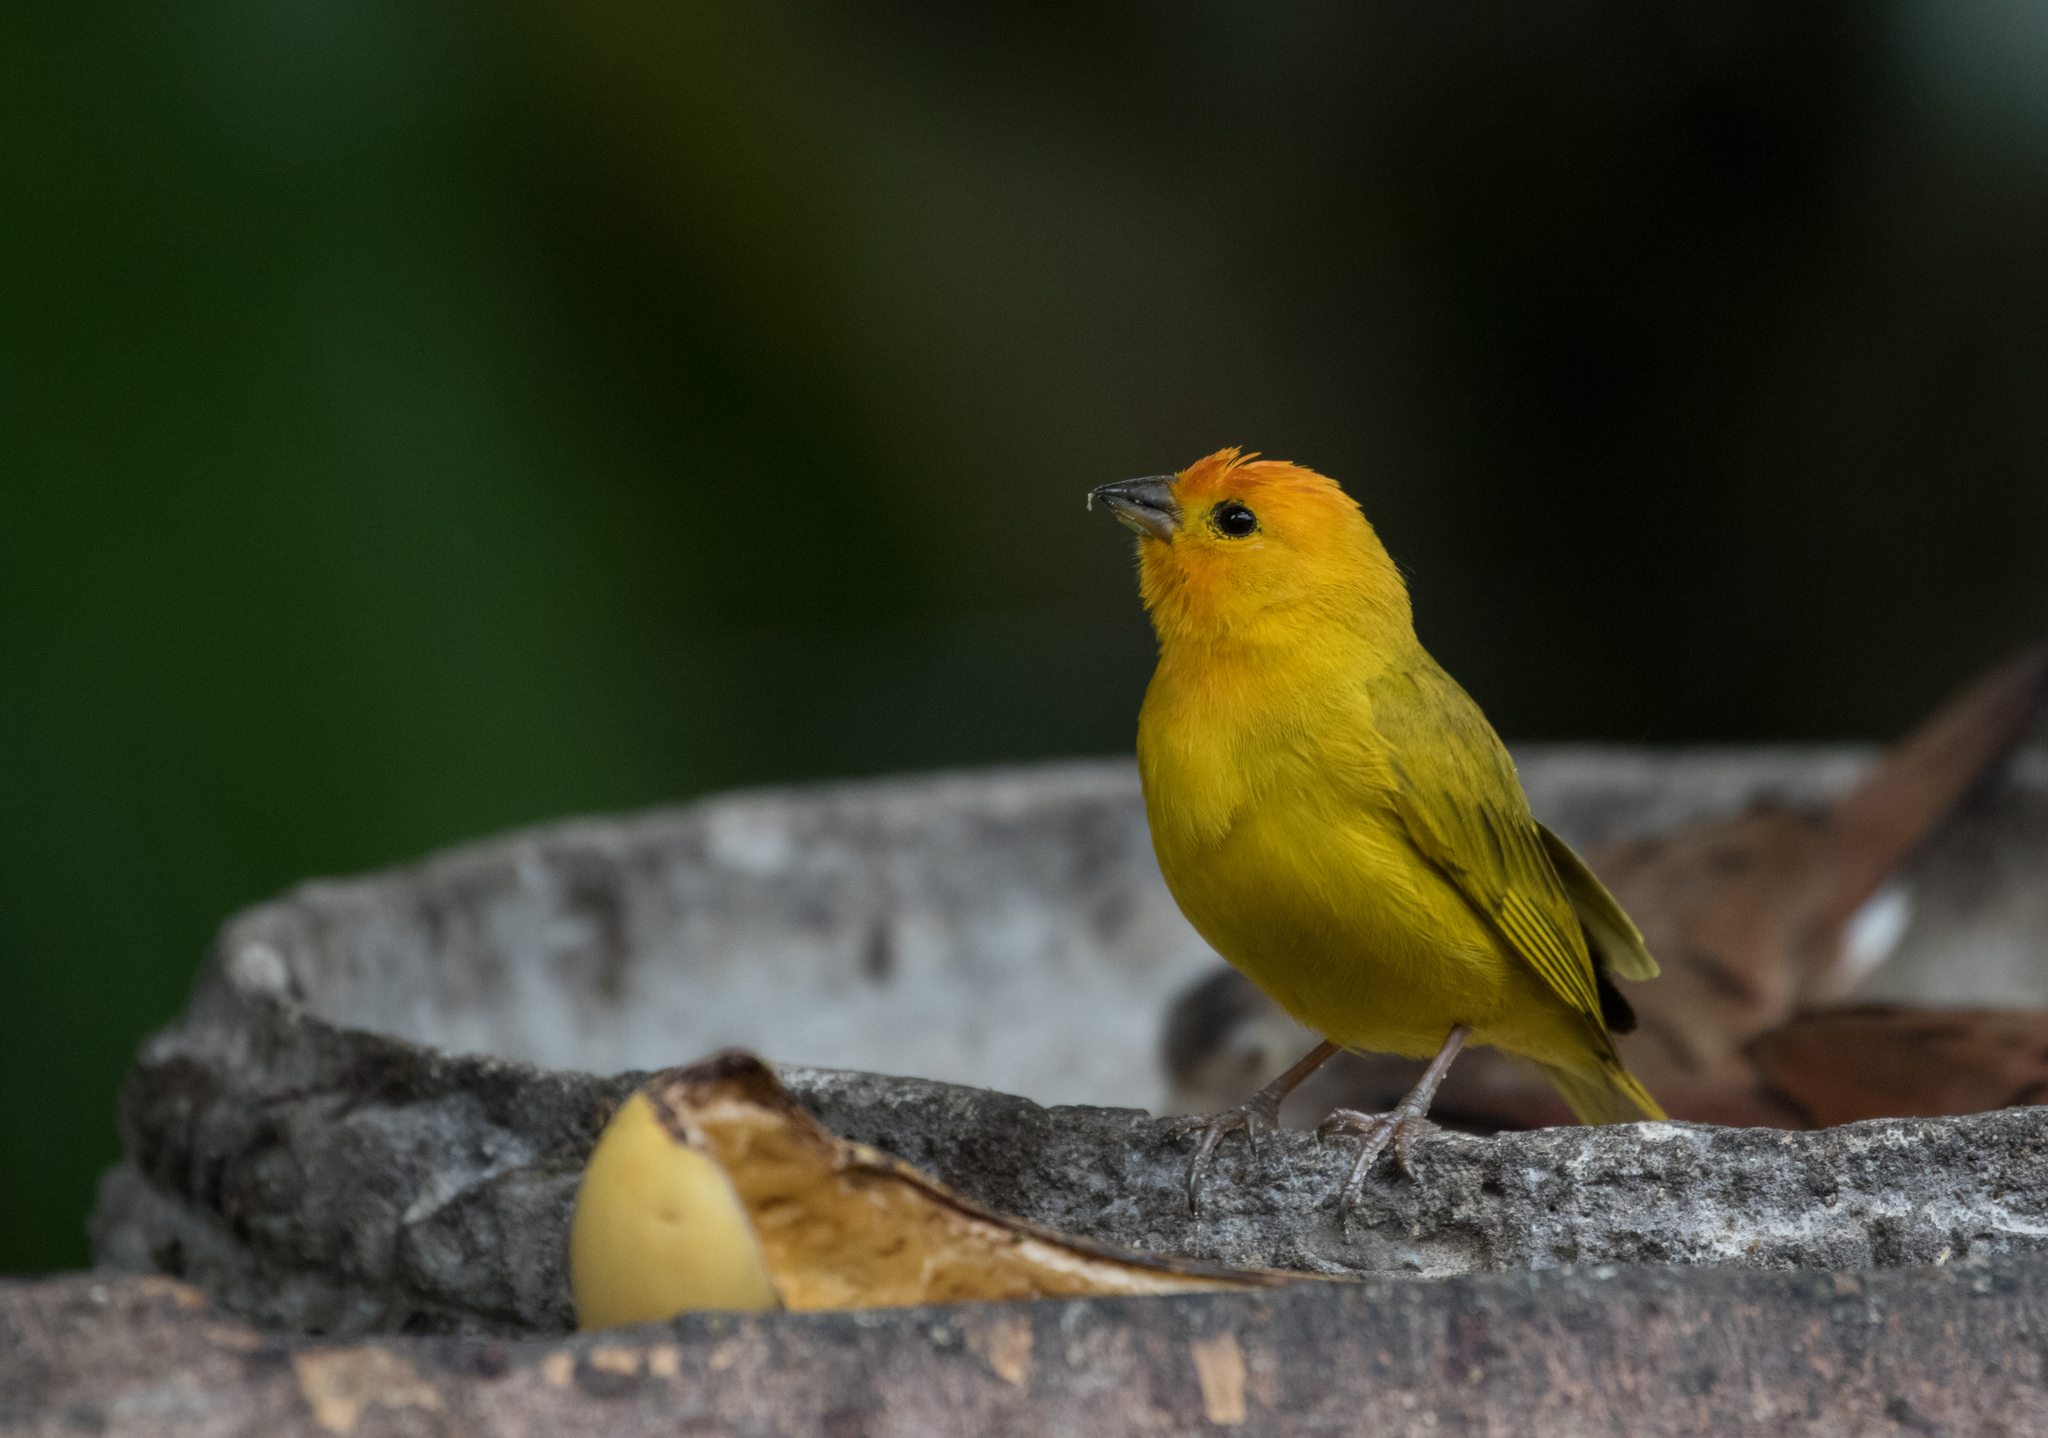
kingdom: Animalia
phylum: Chordata
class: Aves
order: Passeriformes
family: Thraupidae
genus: Sicalis
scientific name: Sicalis flaveola
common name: Saffron finch
